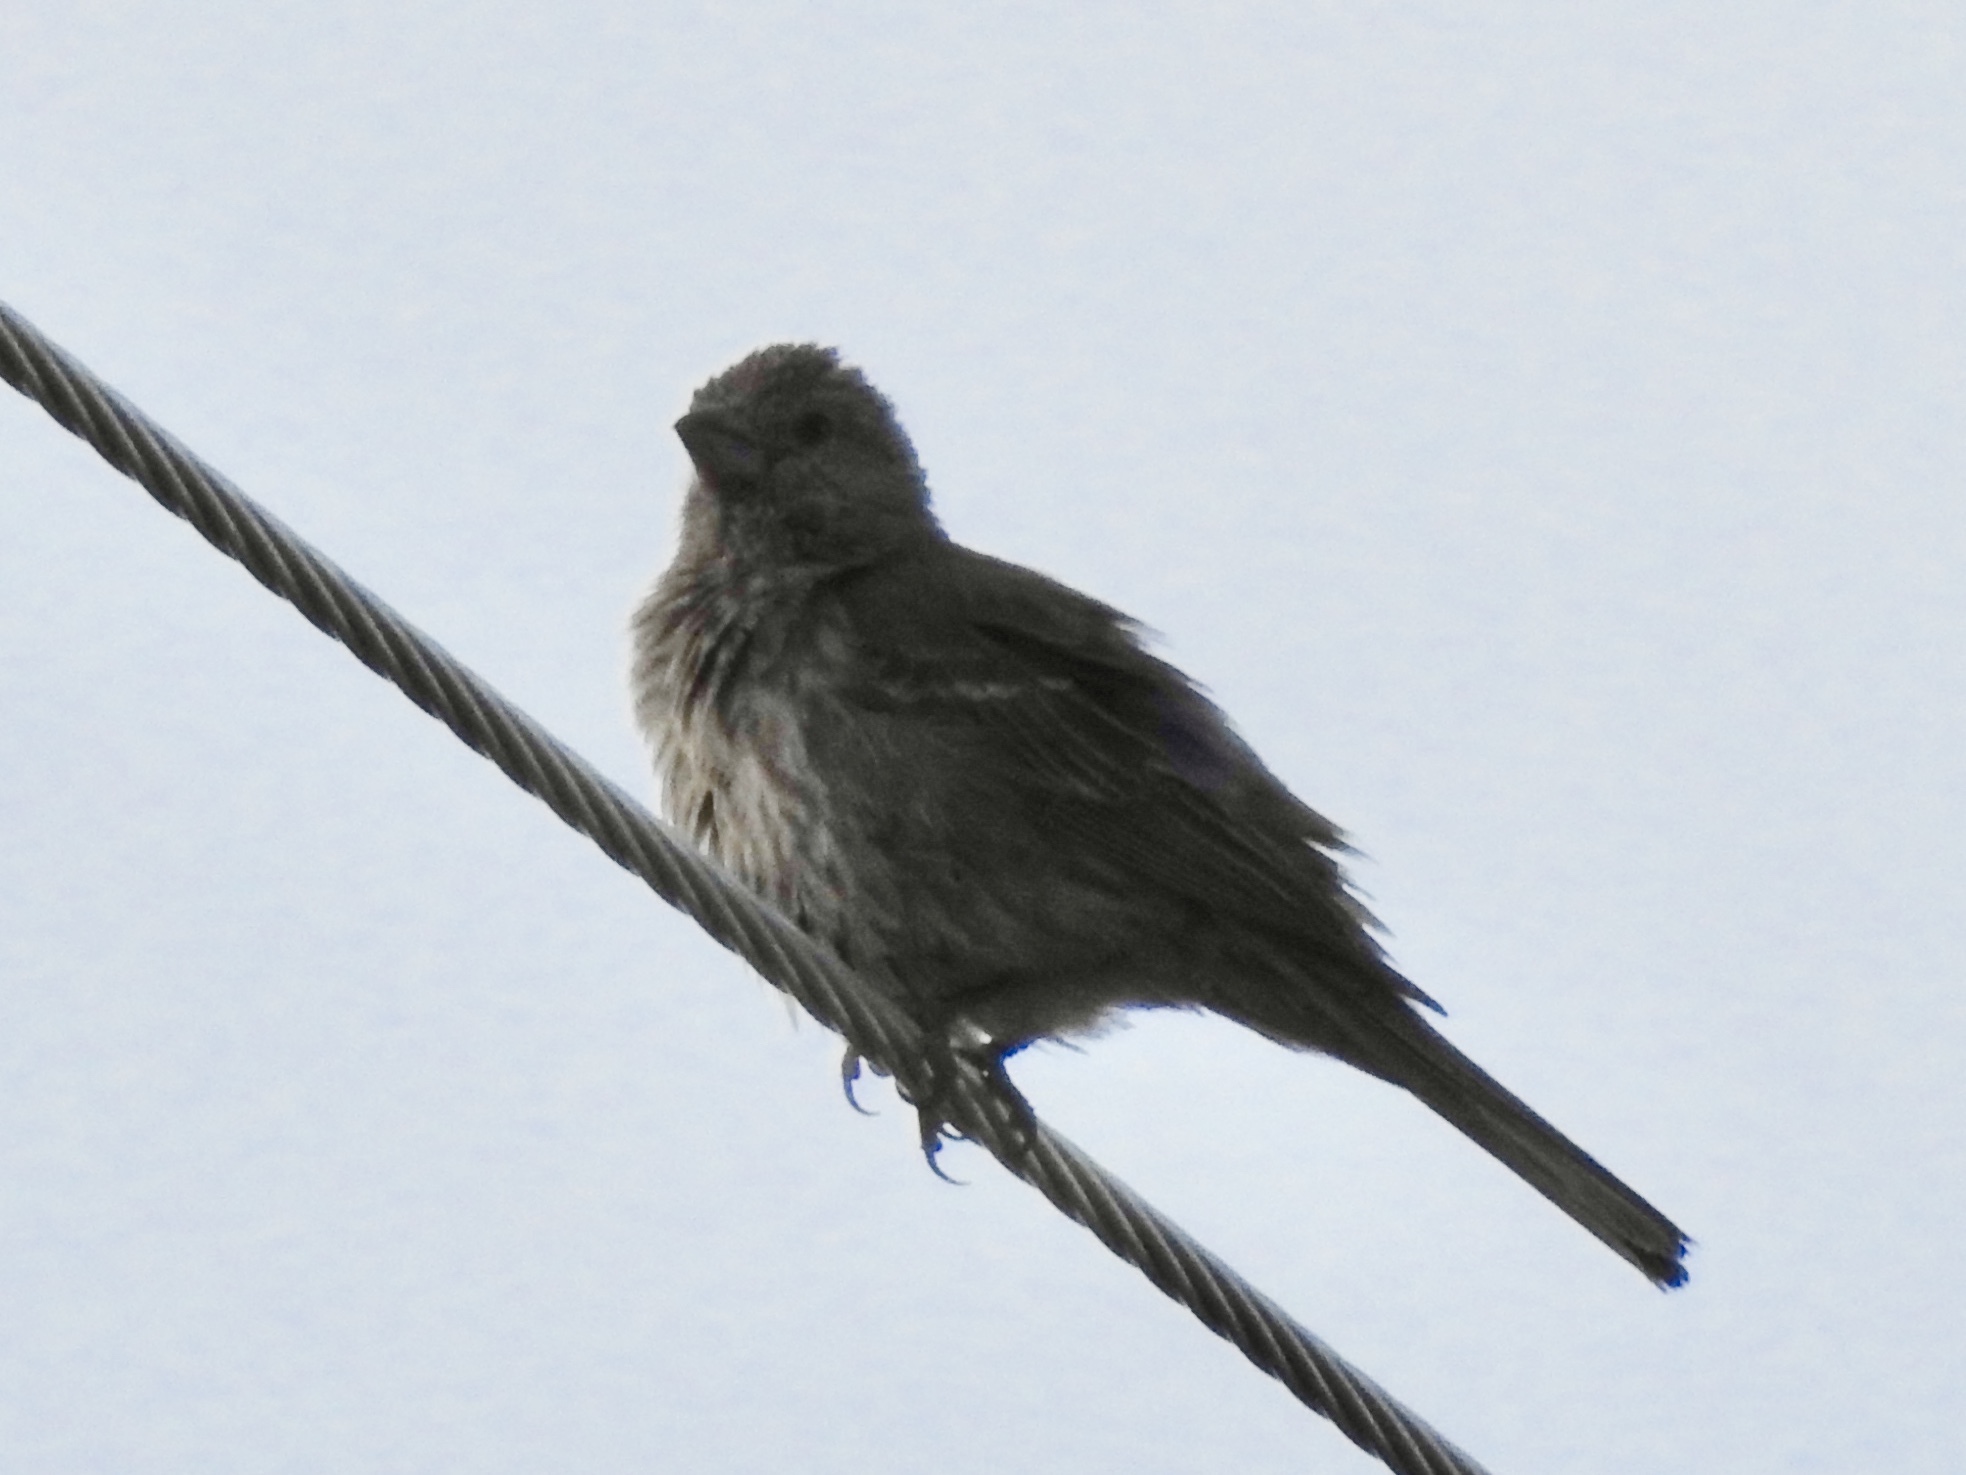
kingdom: Animalia
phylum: Chordata
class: Aves
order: Passeriformes
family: Fringillidae
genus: Haemorhous
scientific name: Haemorhous mexicanus
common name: House finch
